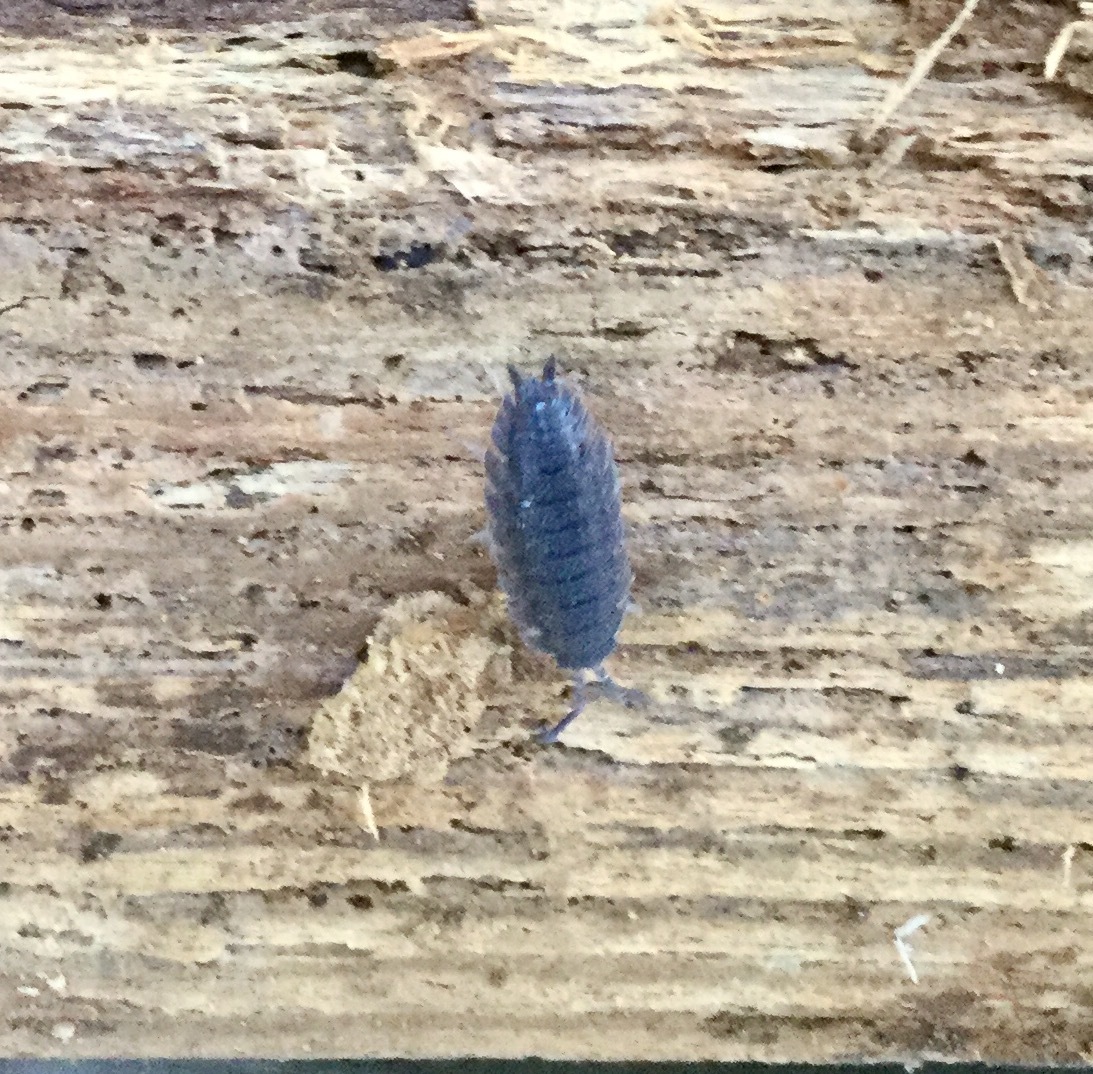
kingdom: Animalia
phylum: Arthropoda
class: Malacostraca
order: Isopoda
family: Porcellionidae
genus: Porcellio
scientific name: Porcellio scaber
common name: Common rough woodlouse
